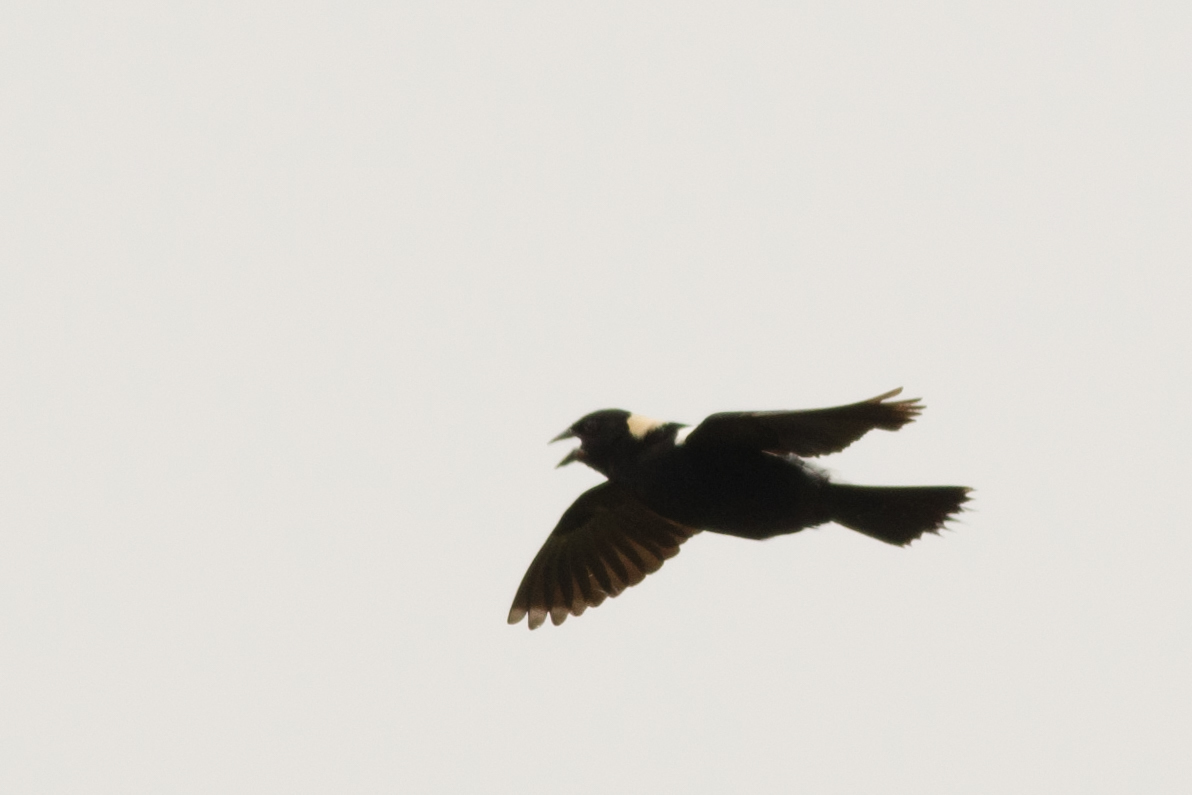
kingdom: Animalia
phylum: Chordata
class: Aves
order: Passeriformes
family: Icteridae
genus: Dolichonyx
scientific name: Dolichonyx oryzivorus
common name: Bobolink
